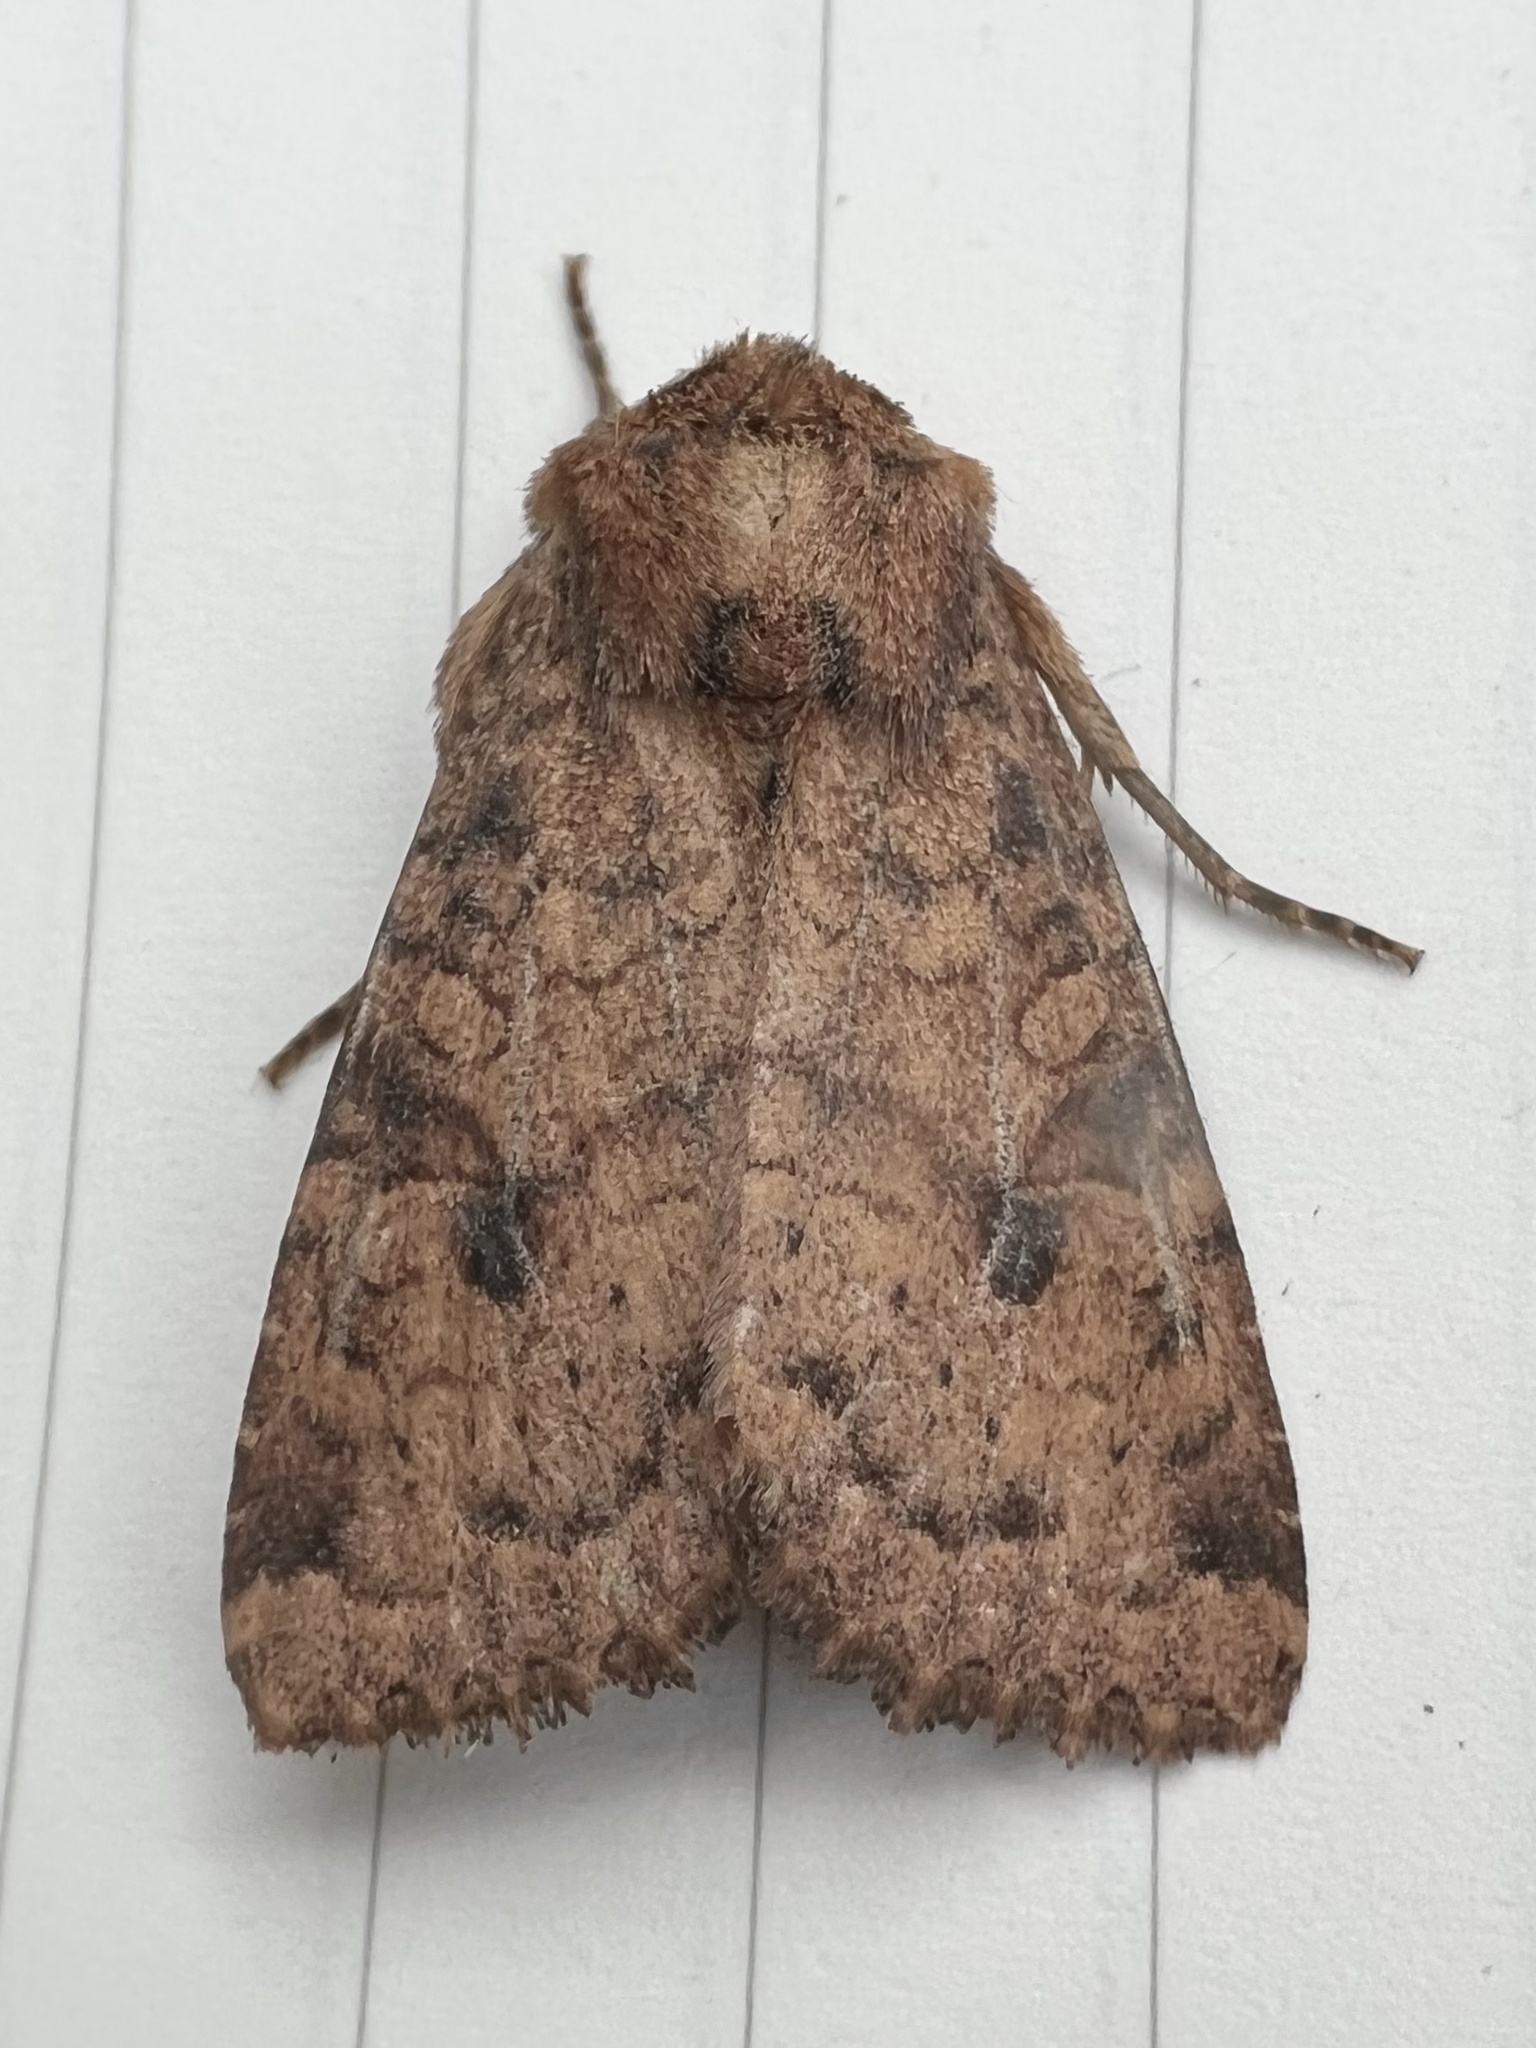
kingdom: Animalia
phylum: Arthropoda
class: Insecta
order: Lepidoptera
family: Noctuidae
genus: Apamea
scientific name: Apamea helva
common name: Yellow three-spot
